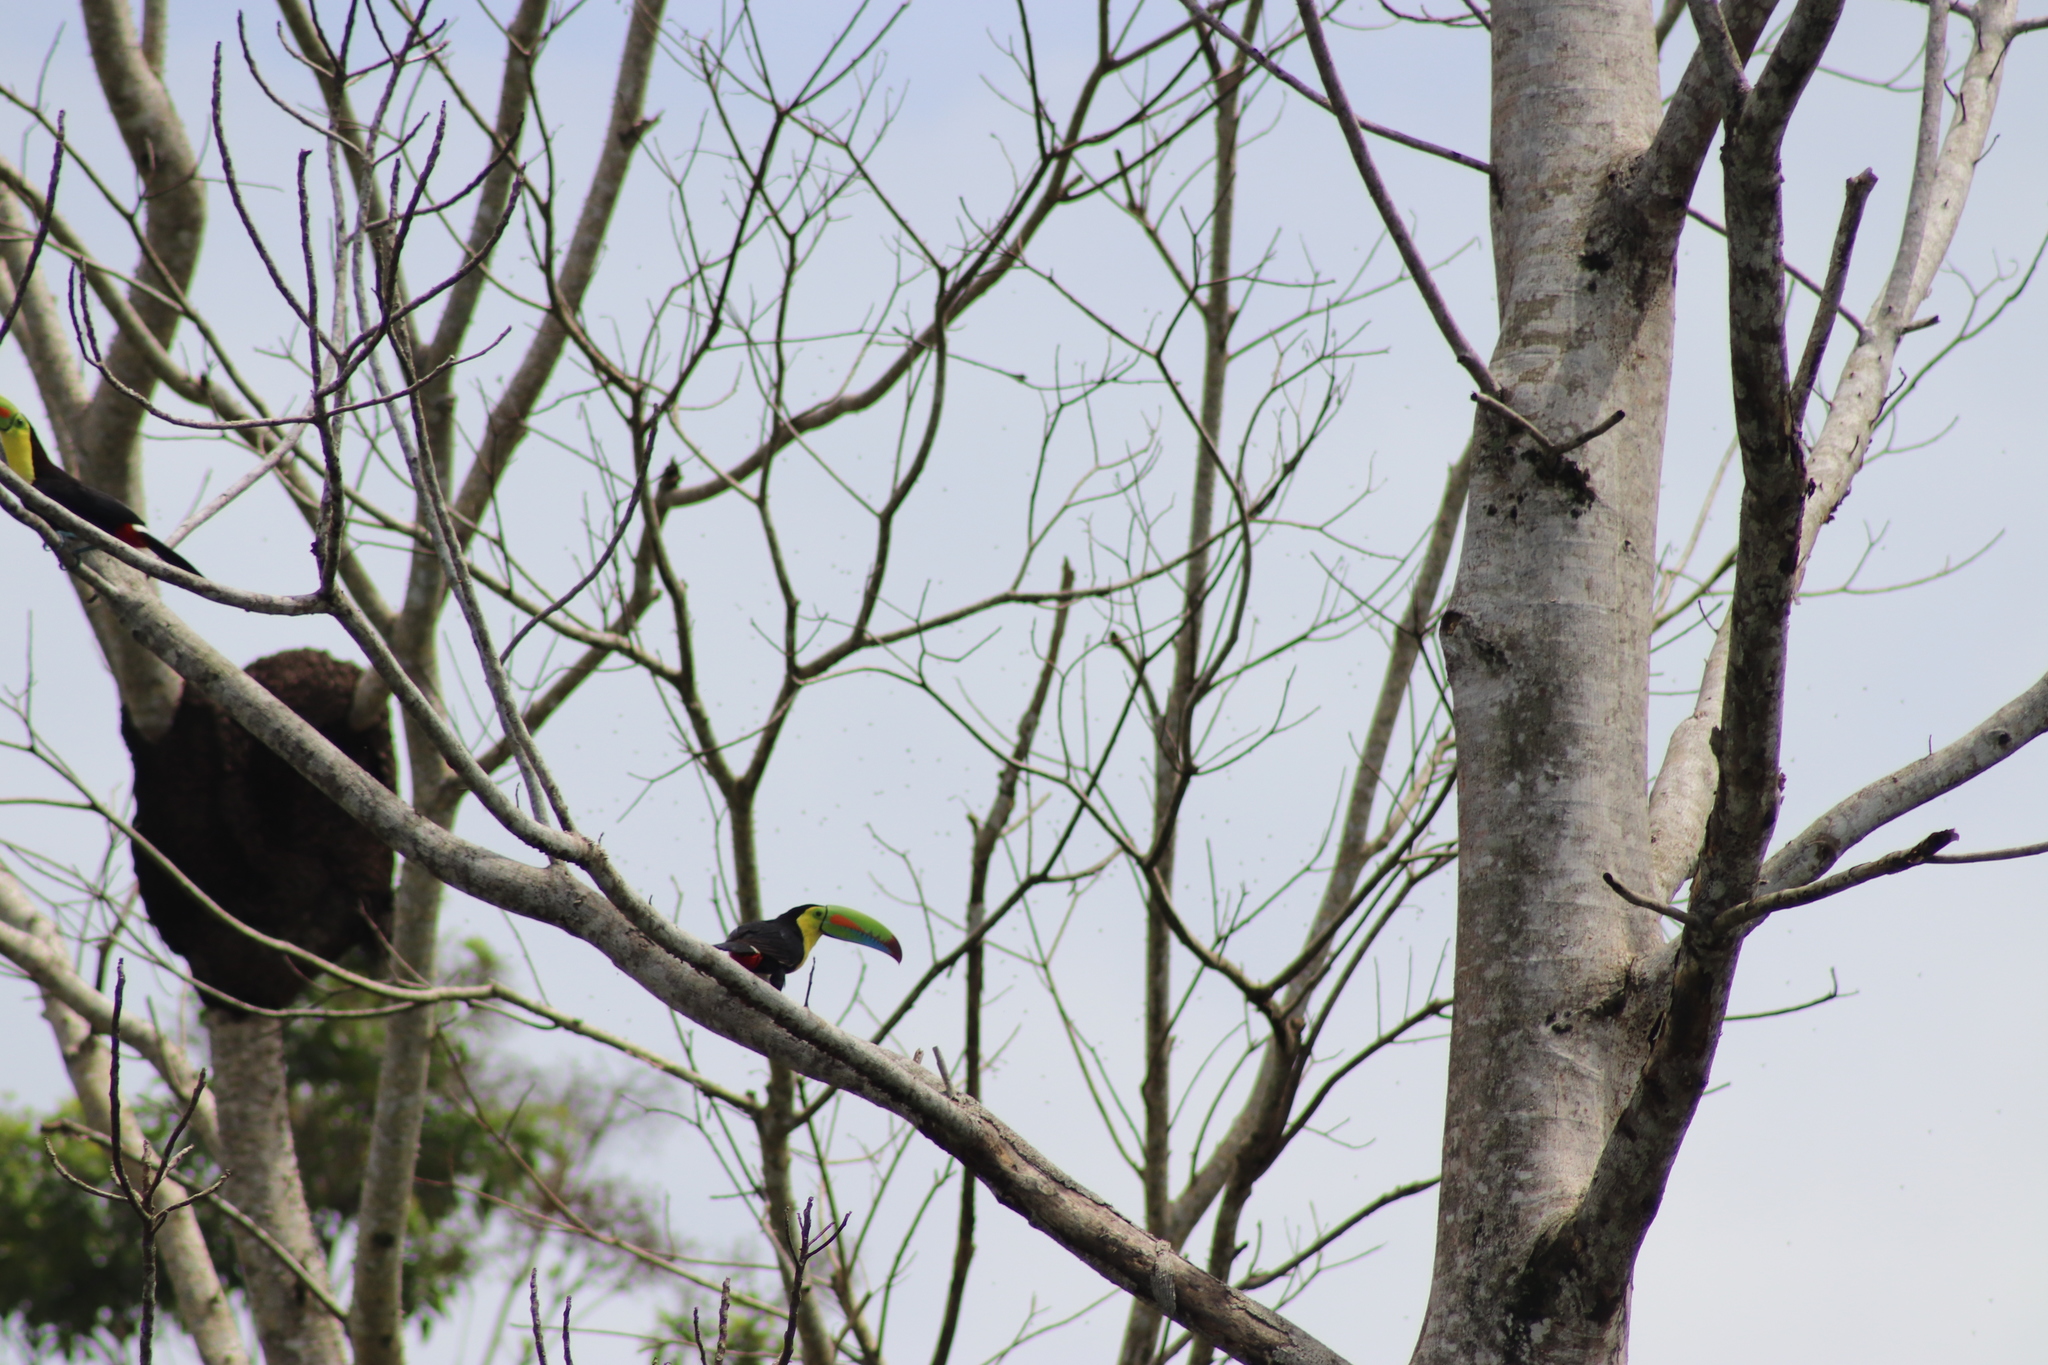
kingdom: Animalia
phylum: Chordata
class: Aves
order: Piciformes
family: Ramphastidae
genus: Ramphastos
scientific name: Ramphastos sulfuratus
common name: Keel-billed toucan
